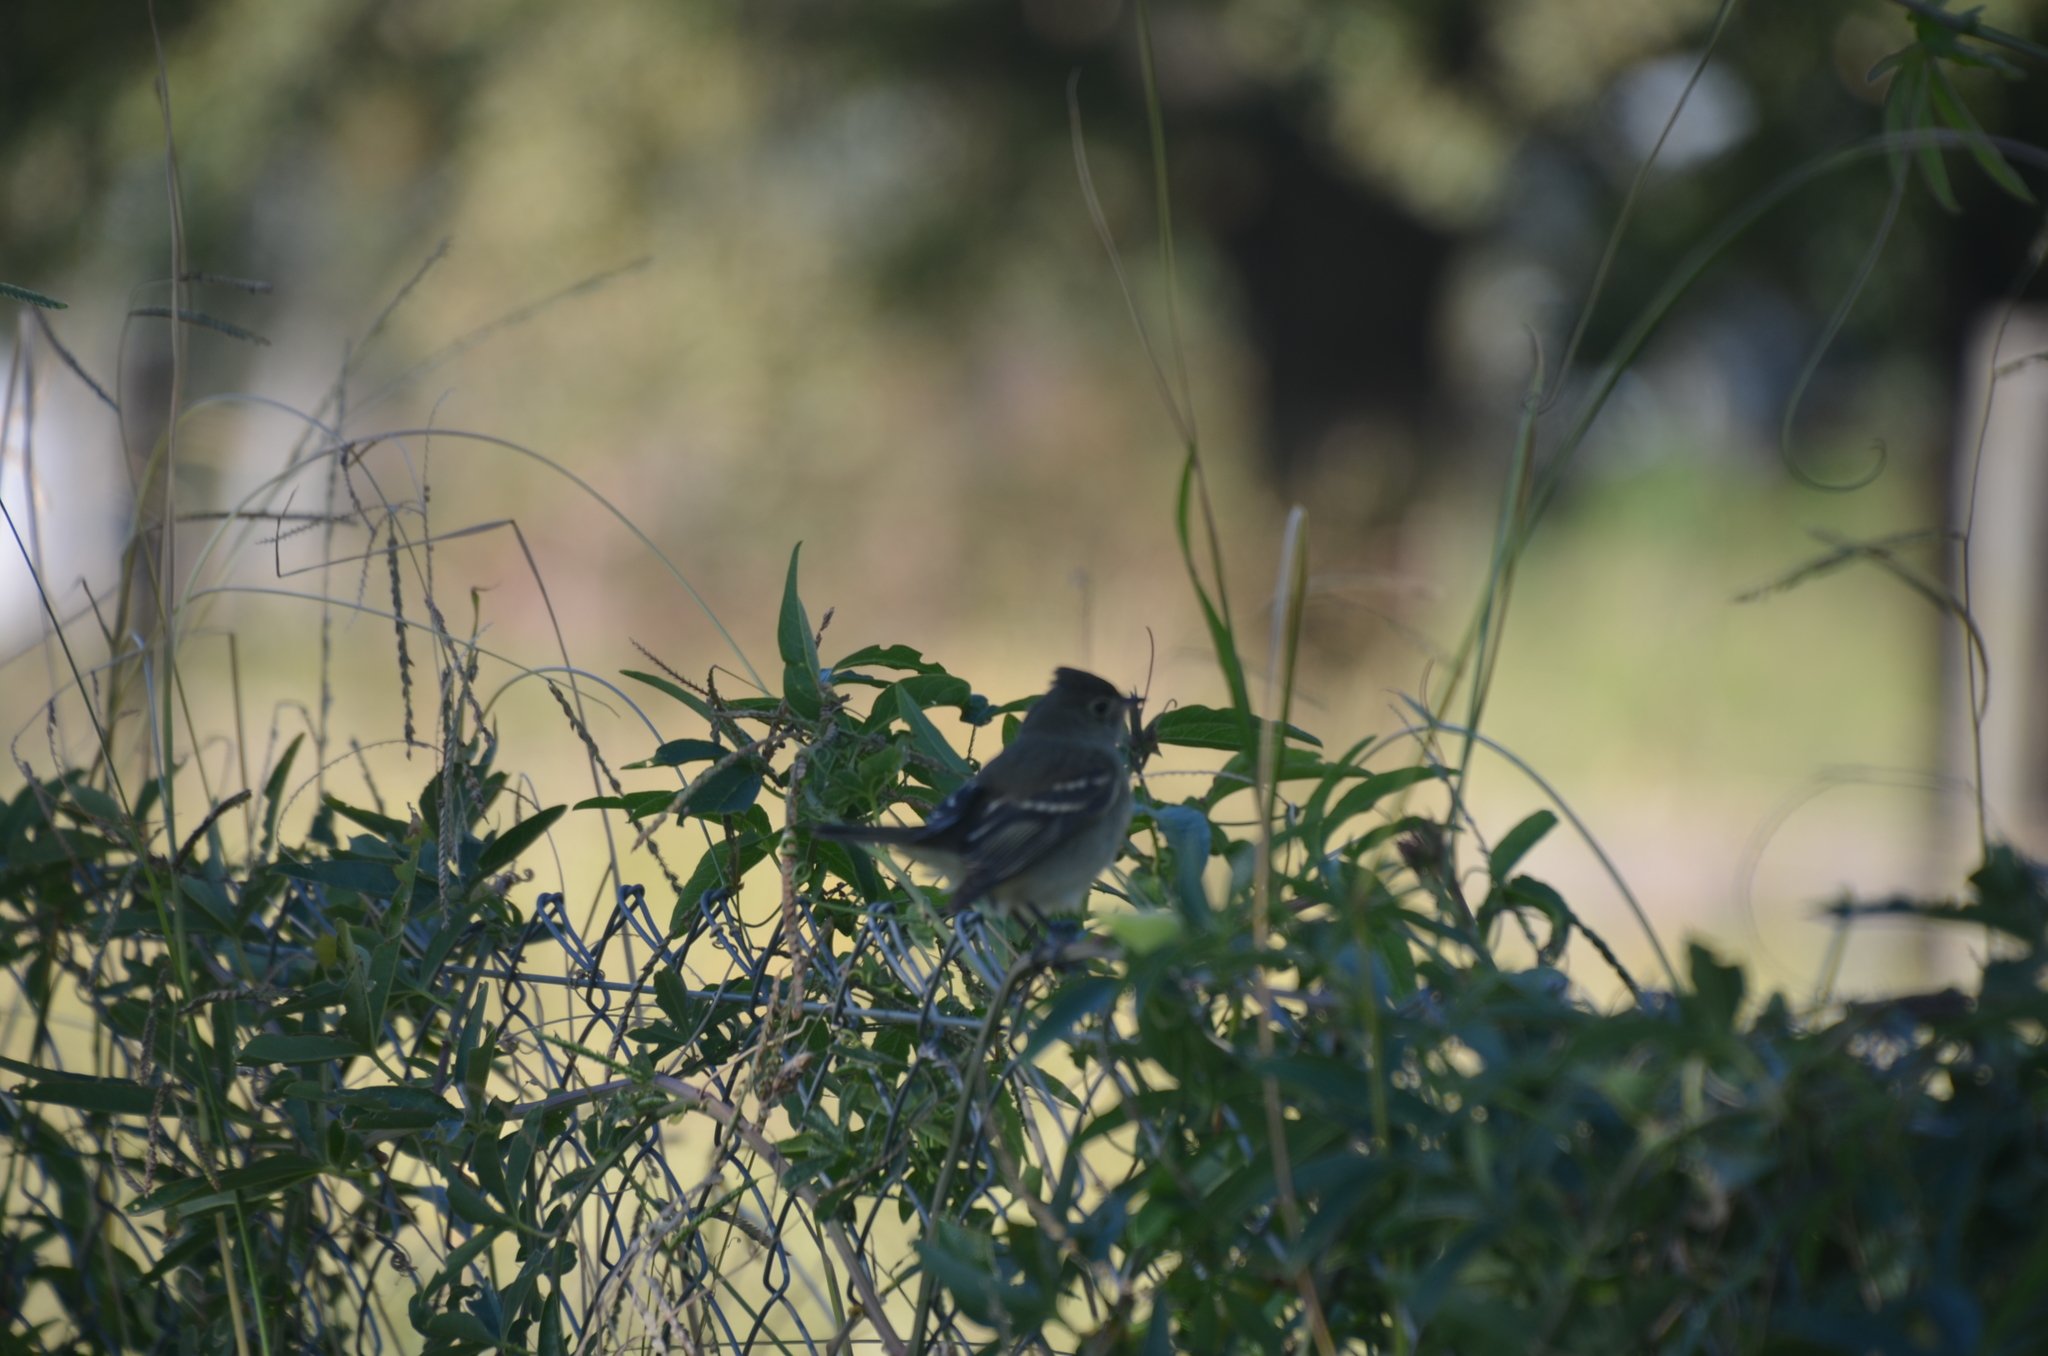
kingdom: Animalia
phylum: Chordata
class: Aves
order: Passeriformes
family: Tyrannidae
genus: Elaenia
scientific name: Elaenia albiceps
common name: White-crested elaenia
